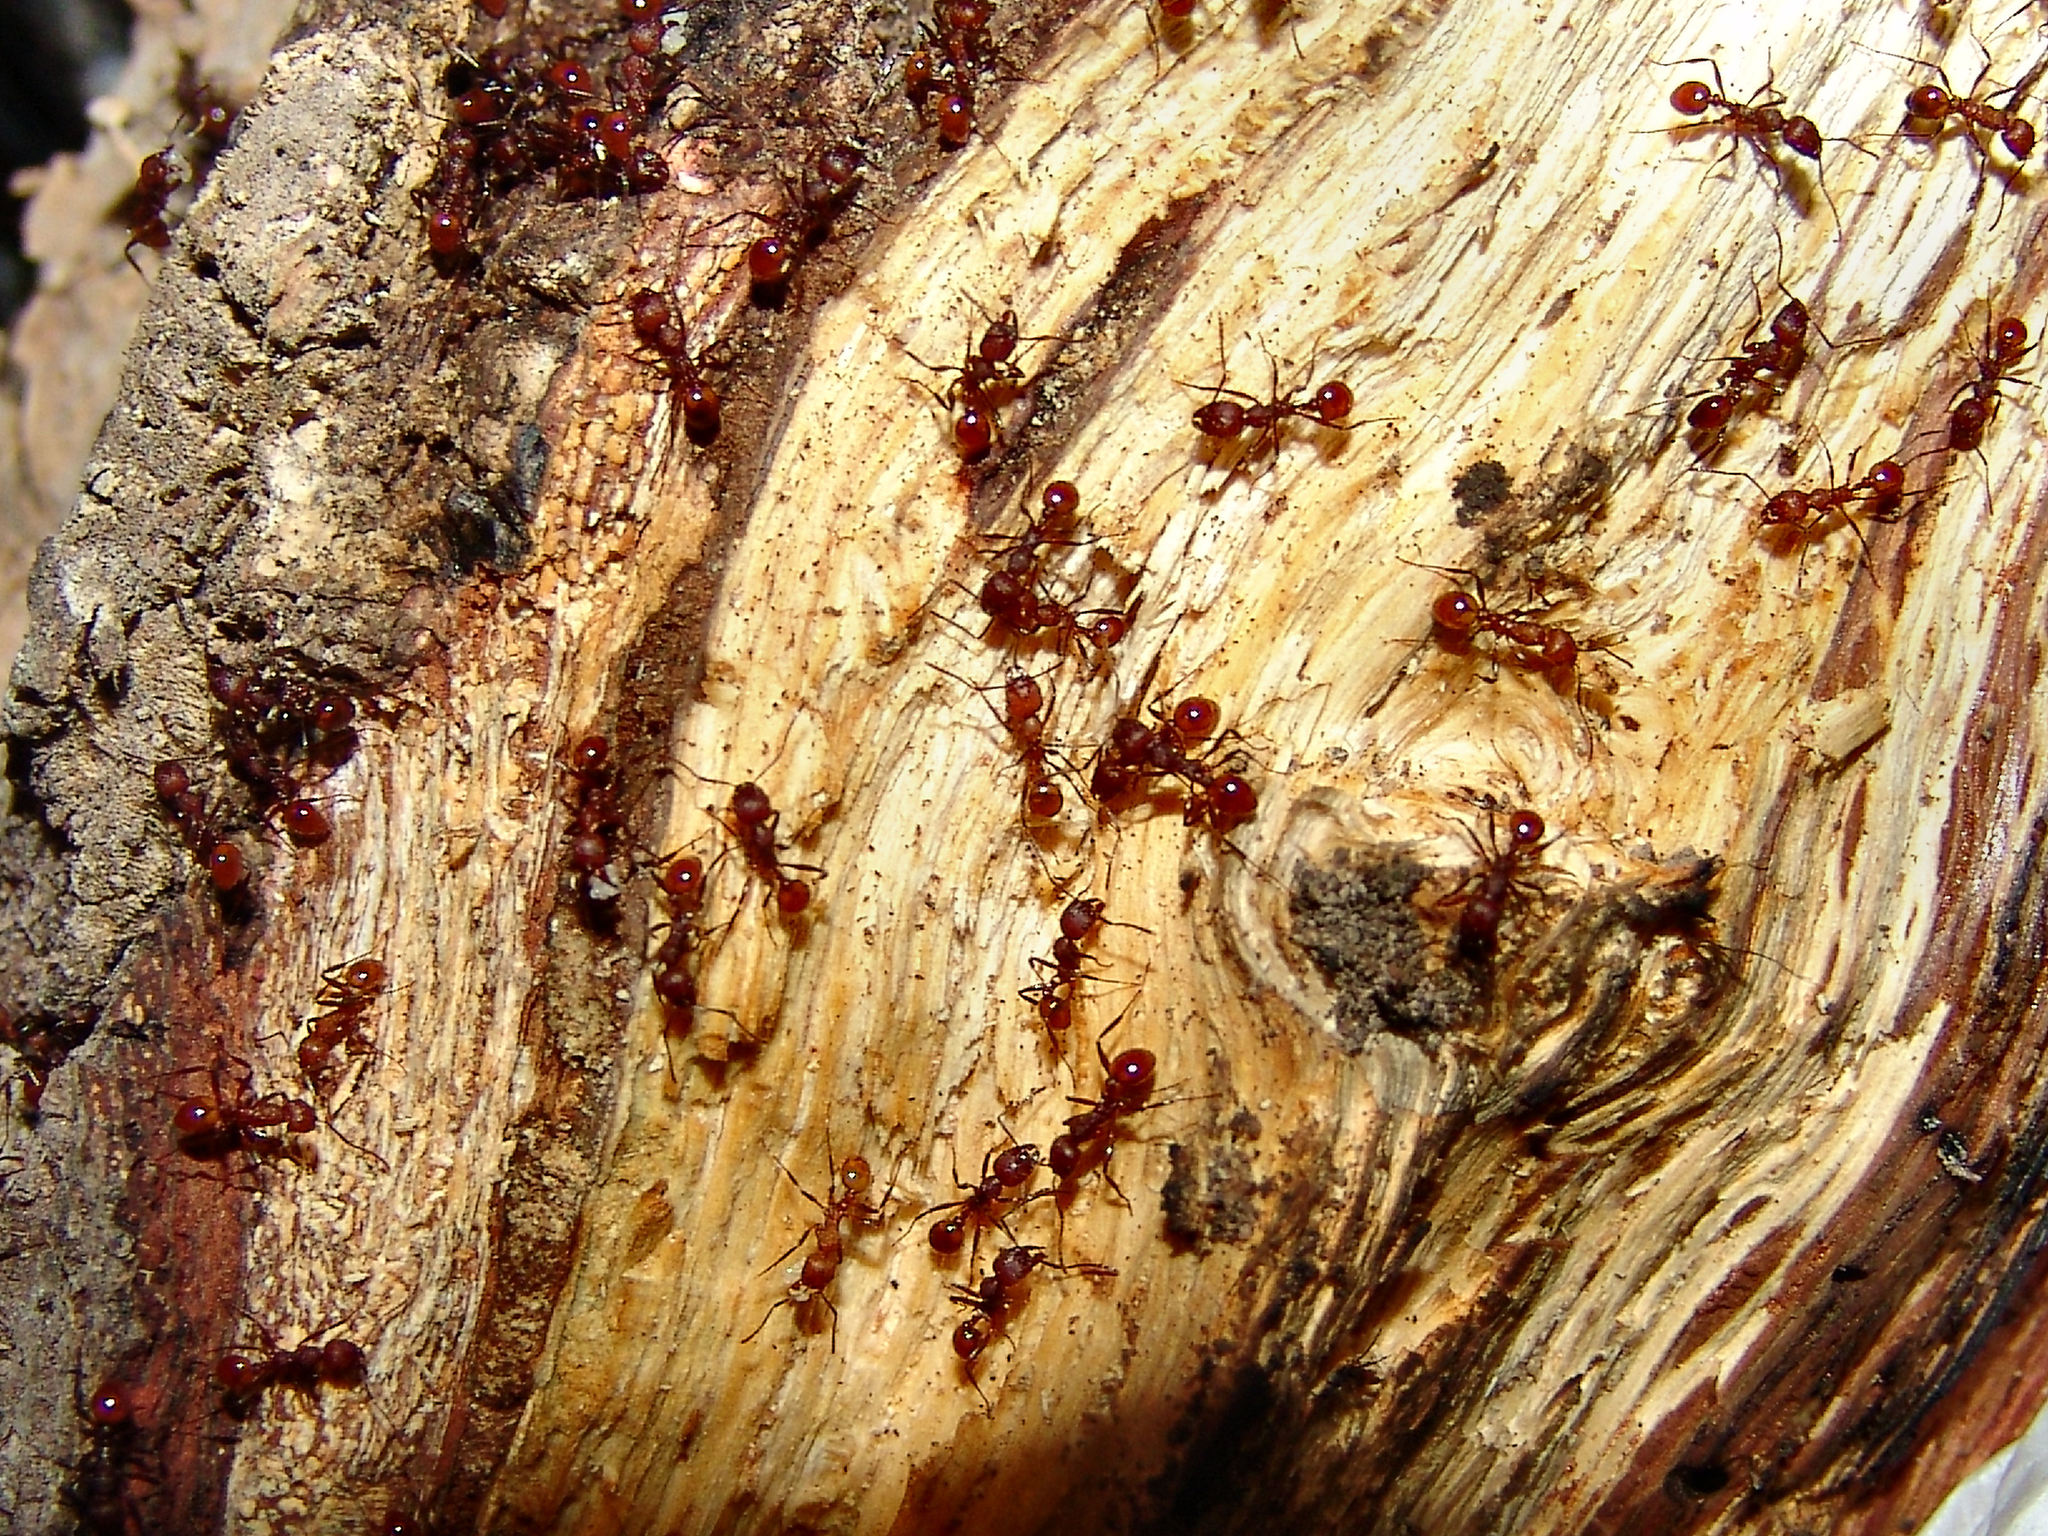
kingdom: Animalia
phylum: Arthropoda
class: Insecta
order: Hymenoptera
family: Formicidae
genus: Aphaenogaster
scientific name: Aphaenogaster tennesseensis
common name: Tennessee thread-waisted ant
